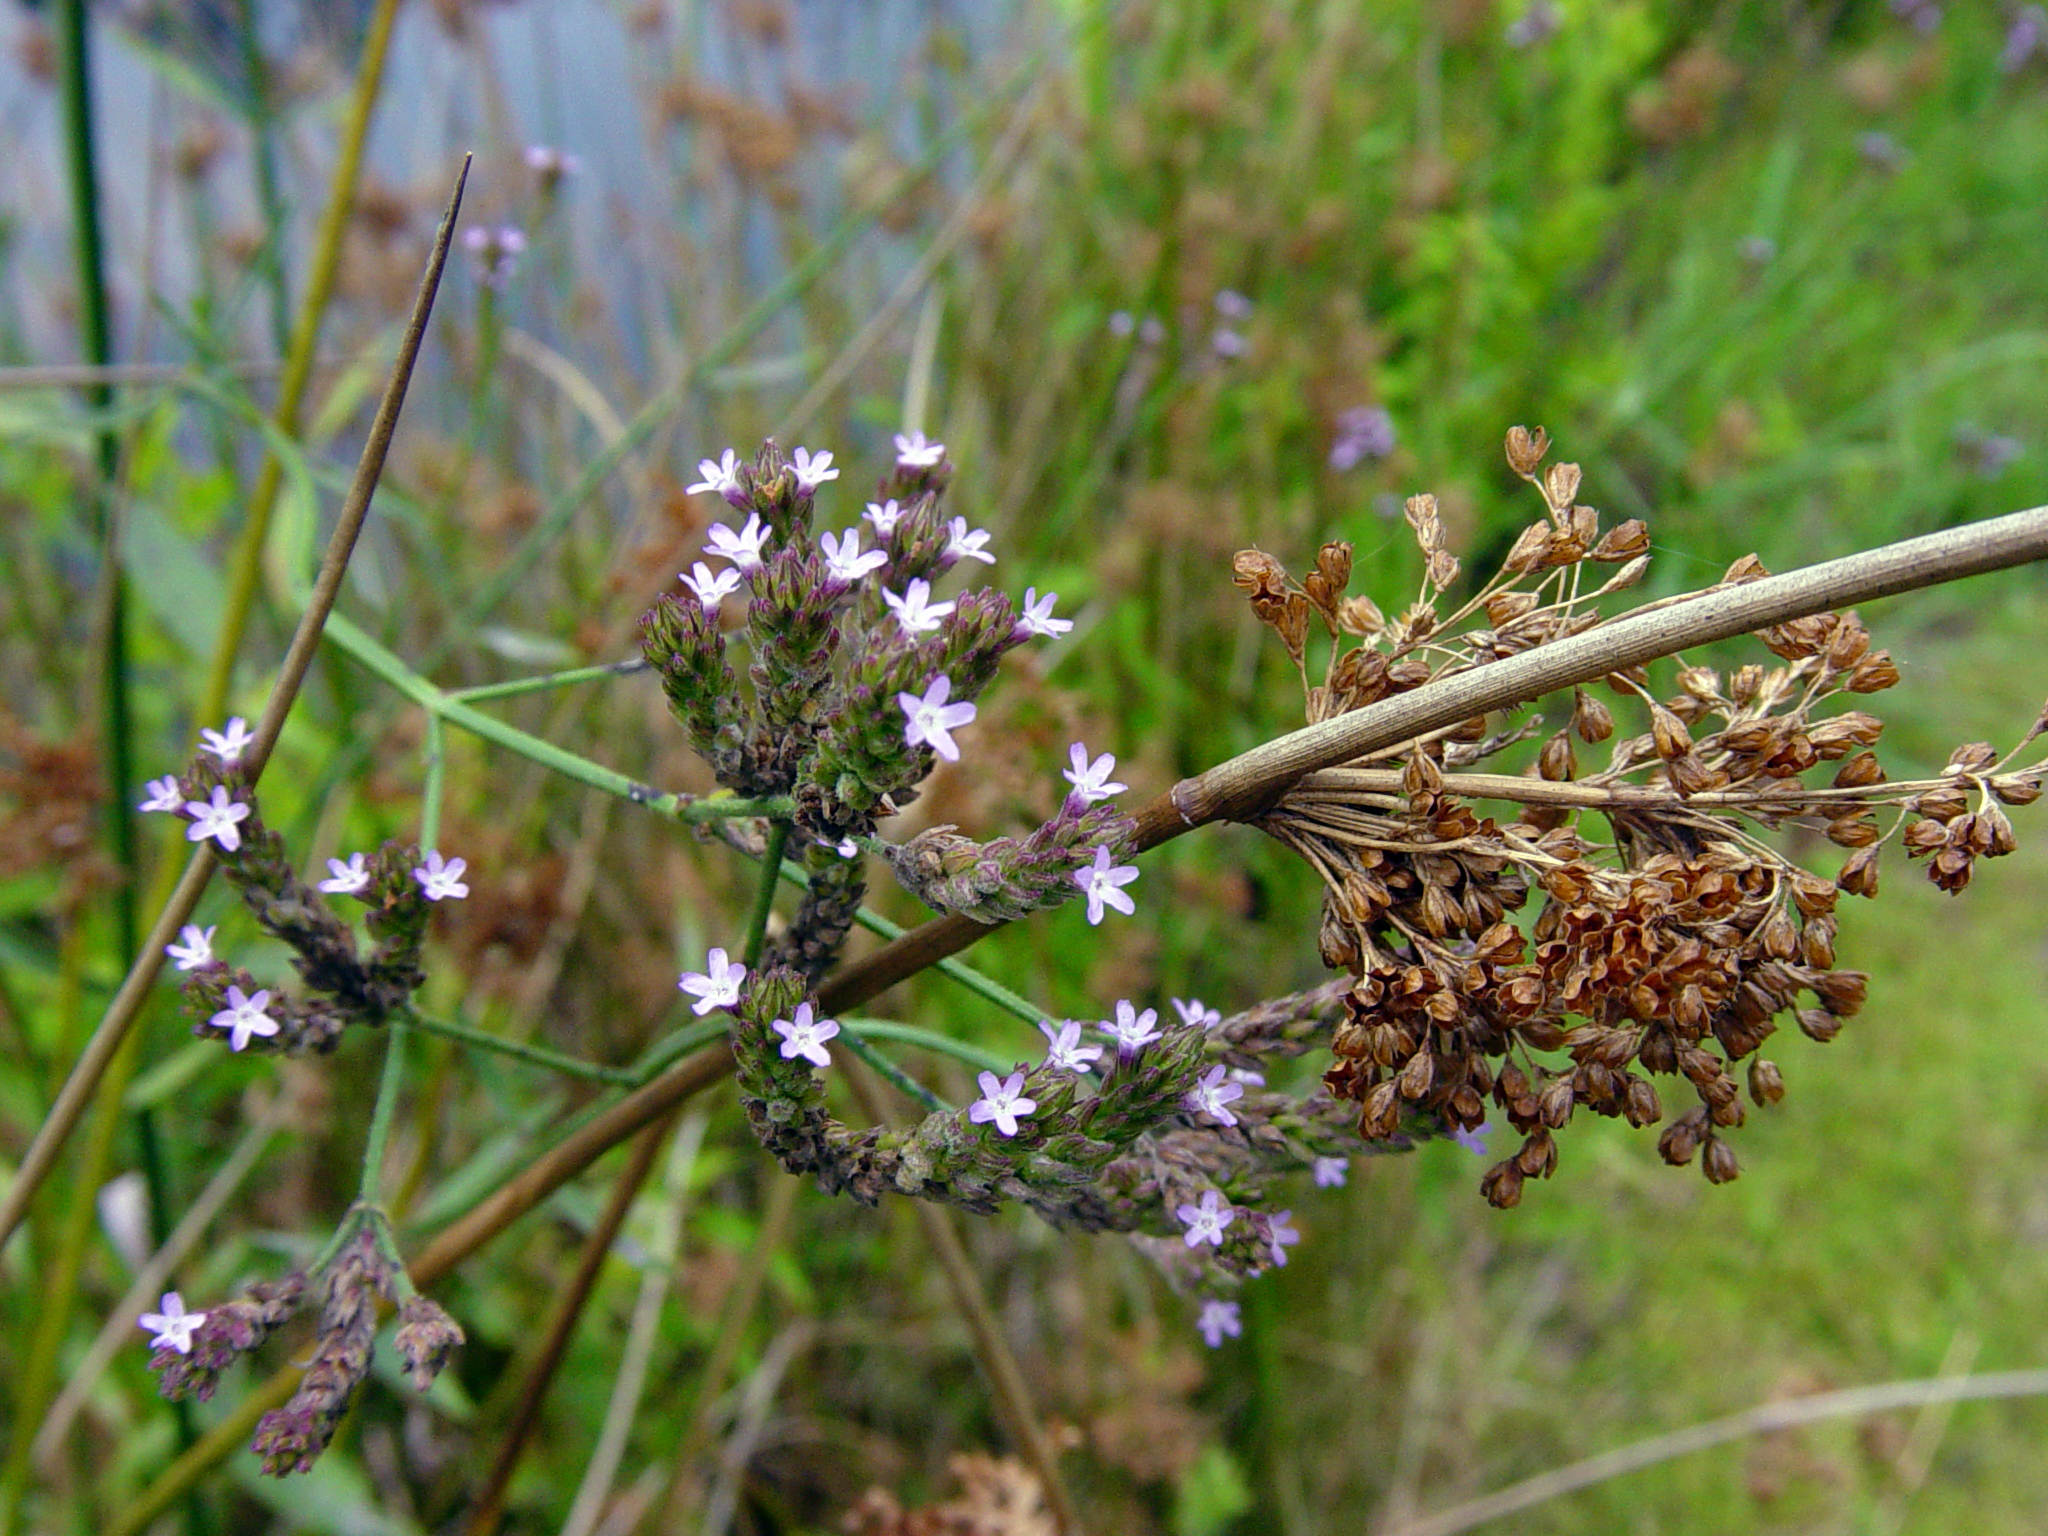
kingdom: Plantae
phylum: Tracheophyta
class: Magnoliopsida
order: Lamiales
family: Verbenaceae
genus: Verbena
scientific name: Verbena brasiliensis
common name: Brazilian vervain
